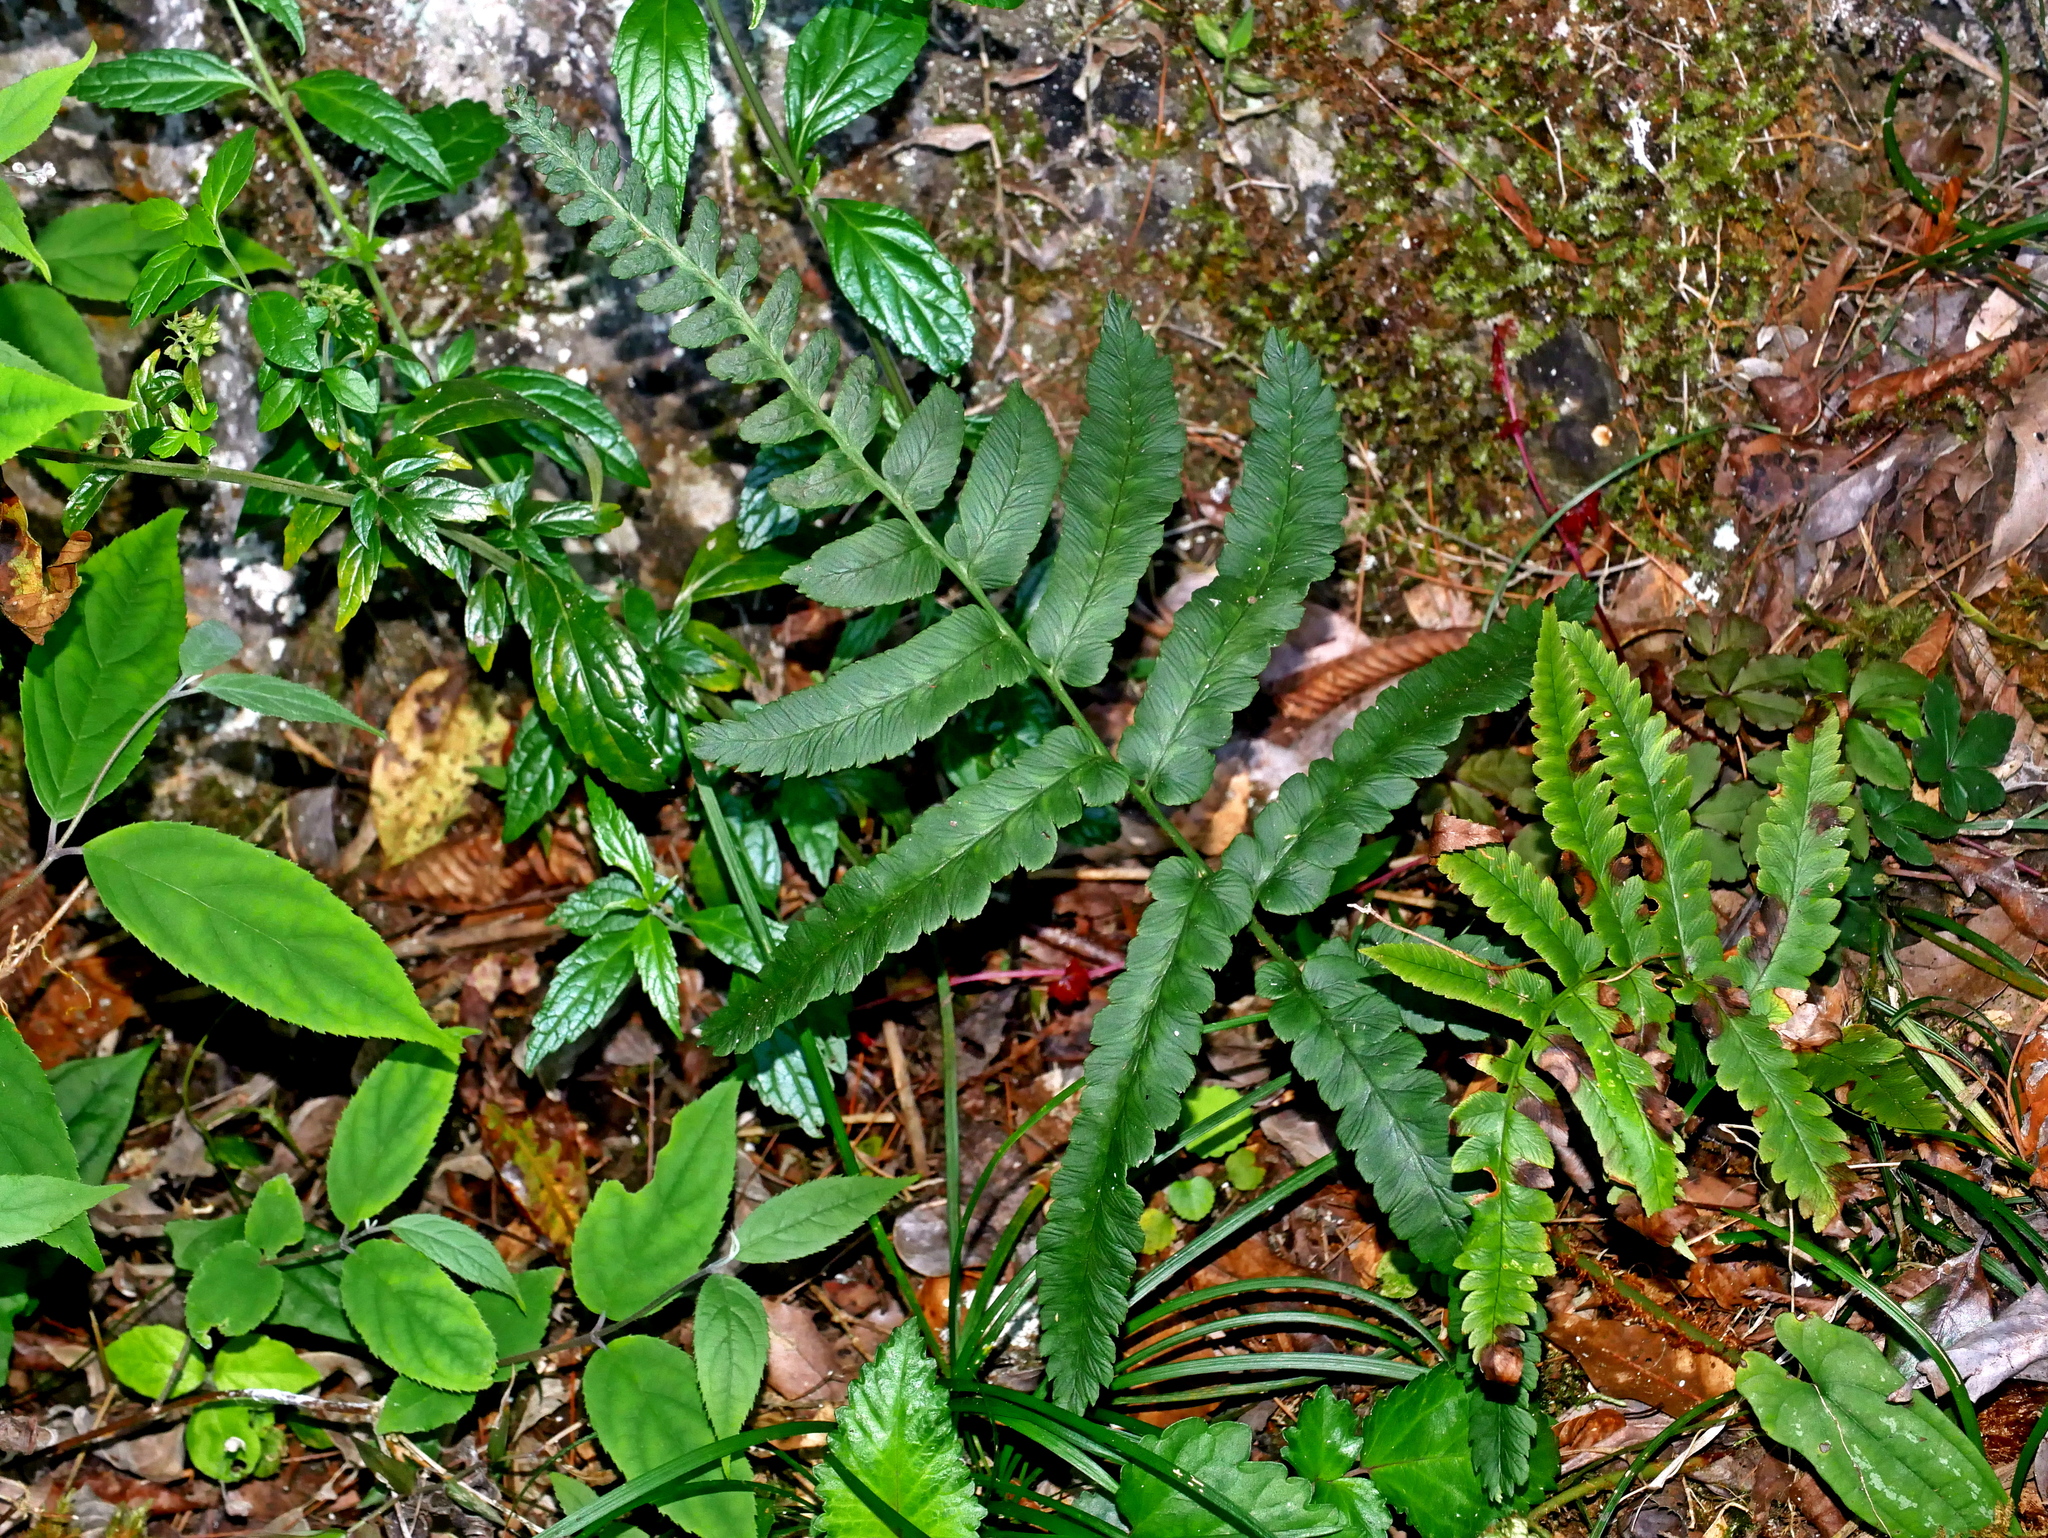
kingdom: Plantae
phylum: Tracheophyta
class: Polypodiopsida
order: Polypodiales
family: Dryopteridaceae
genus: Dryopteris
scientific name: Dryopteris toyamae
